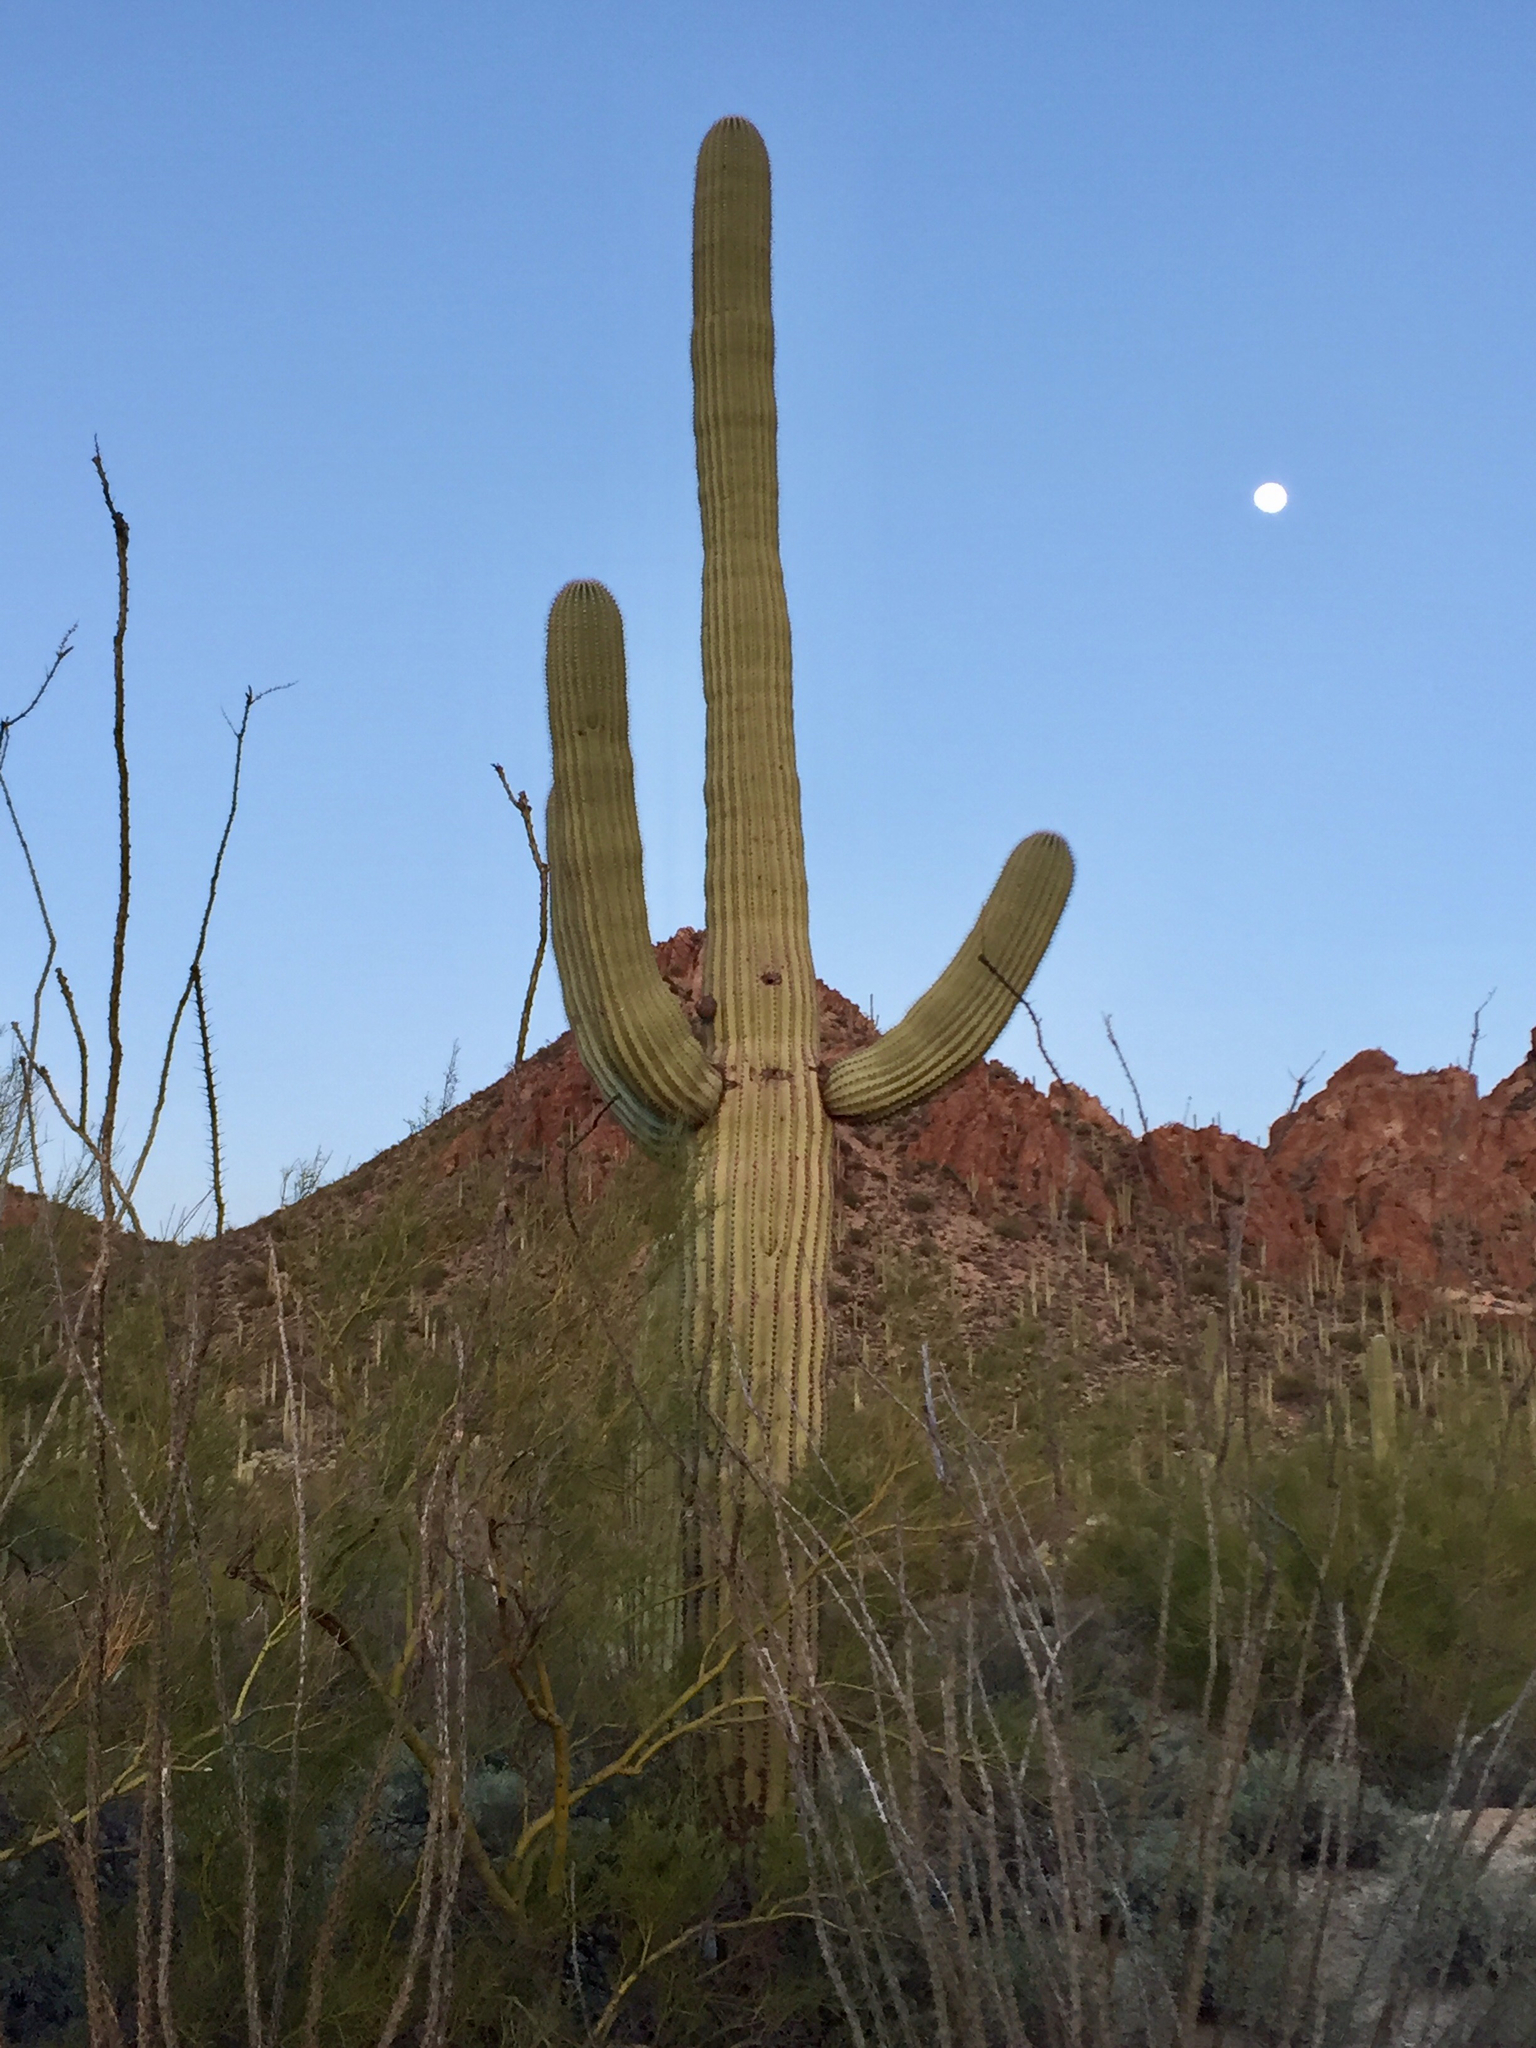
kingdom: Plantae
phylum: Tracheophyta
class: Magnoliopsida
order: Caryophyllales
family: Cactaceae
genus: Carnegiea
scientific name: Carnegiea gigantea
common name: Saguaro
